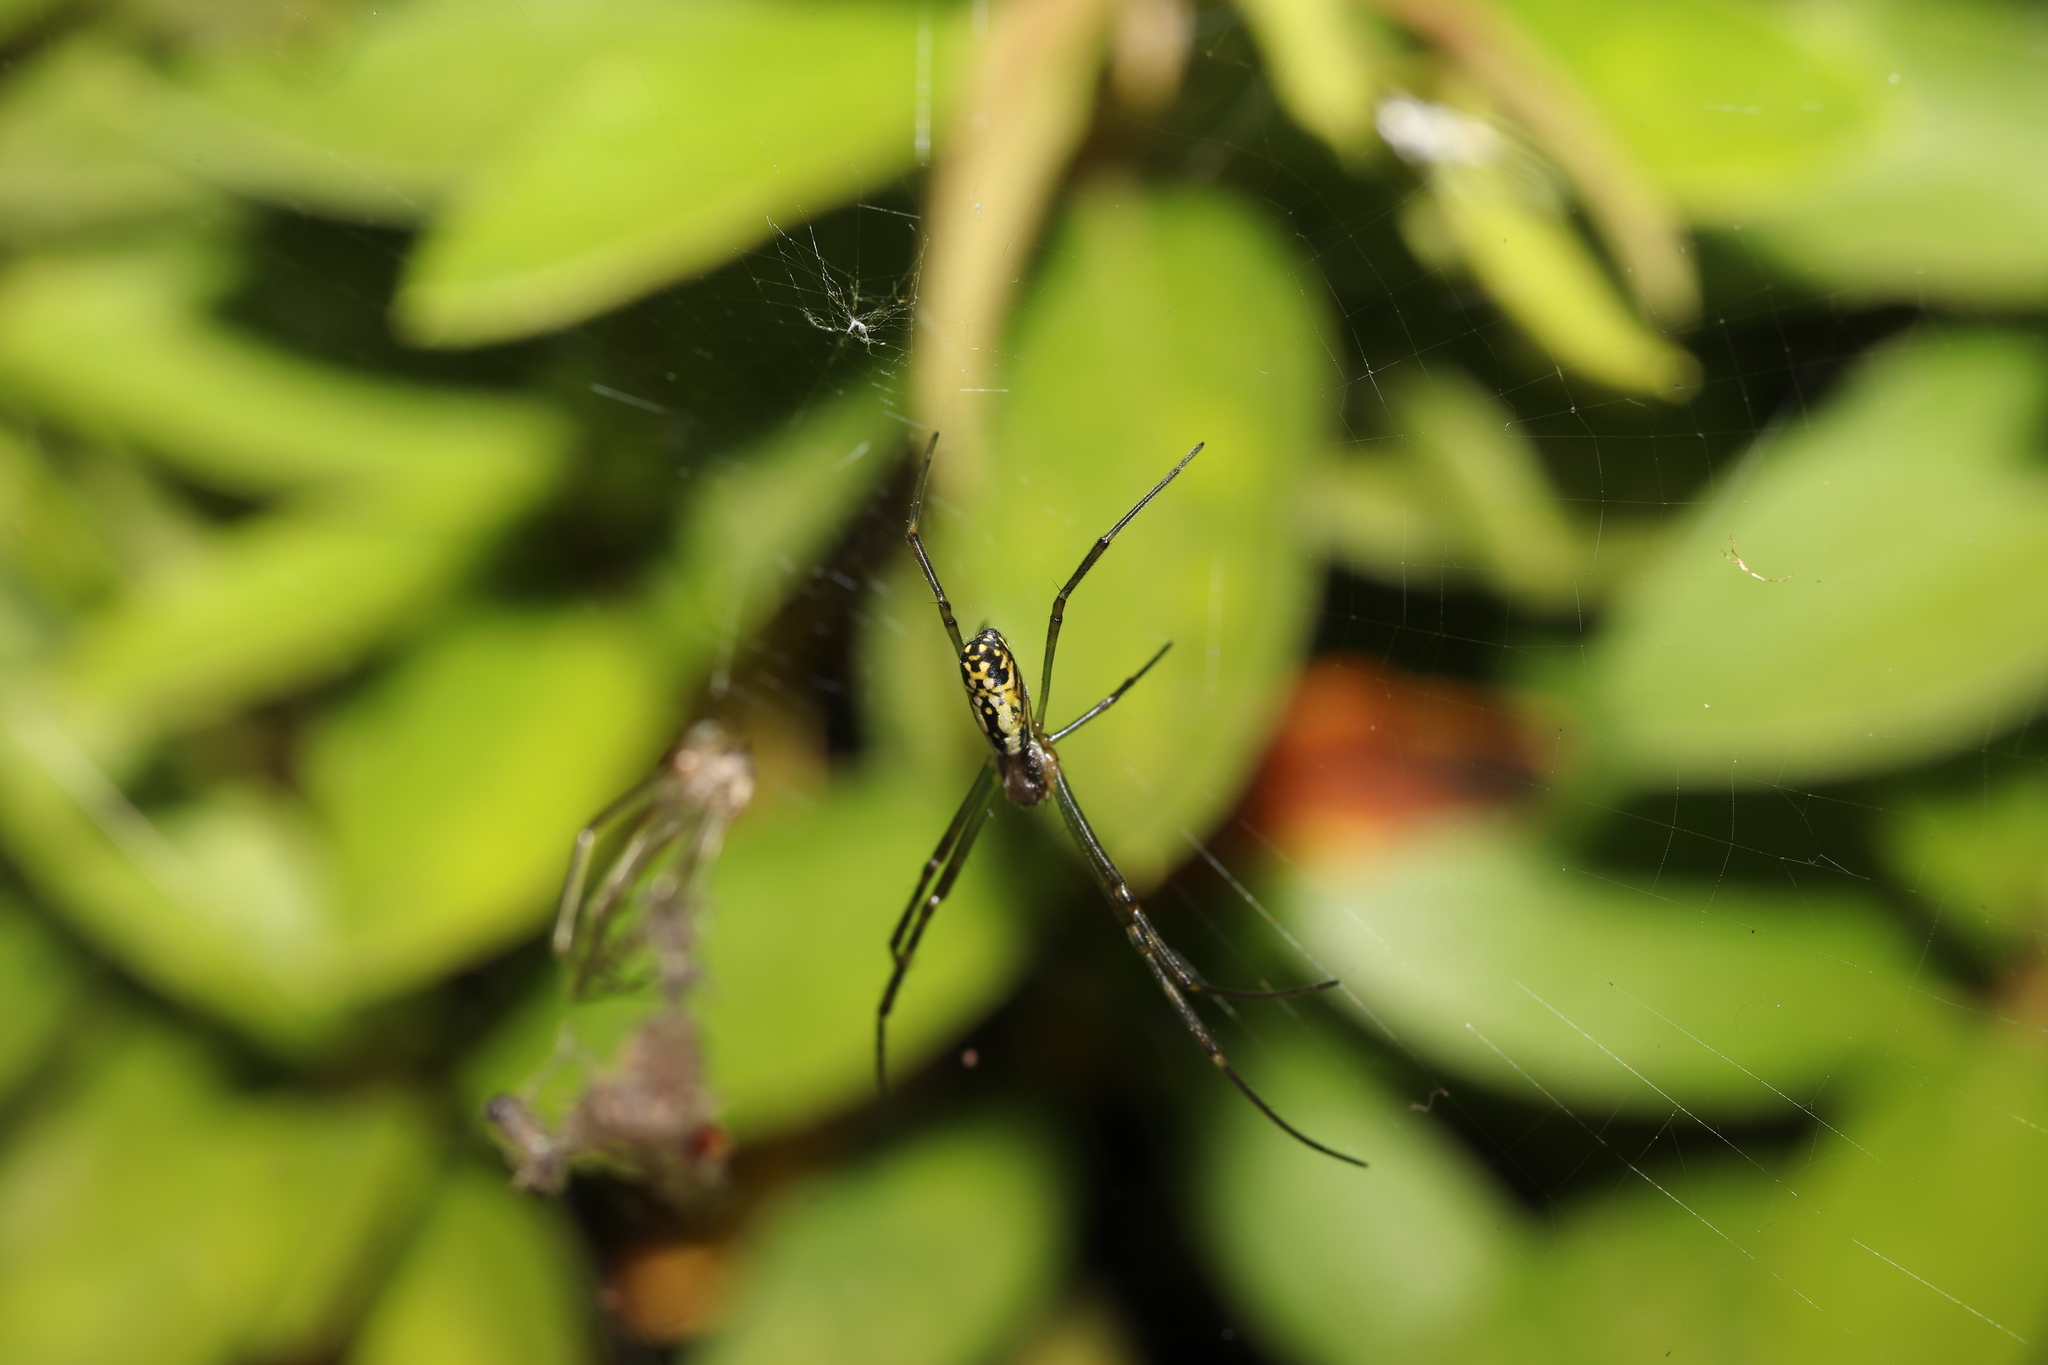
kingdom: Animalia
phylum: Arthropoda
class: Arachnida
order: Araneae
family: Araneidae
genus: Trichonephila
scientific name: Trichonephila clavata
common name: Jorō spider
